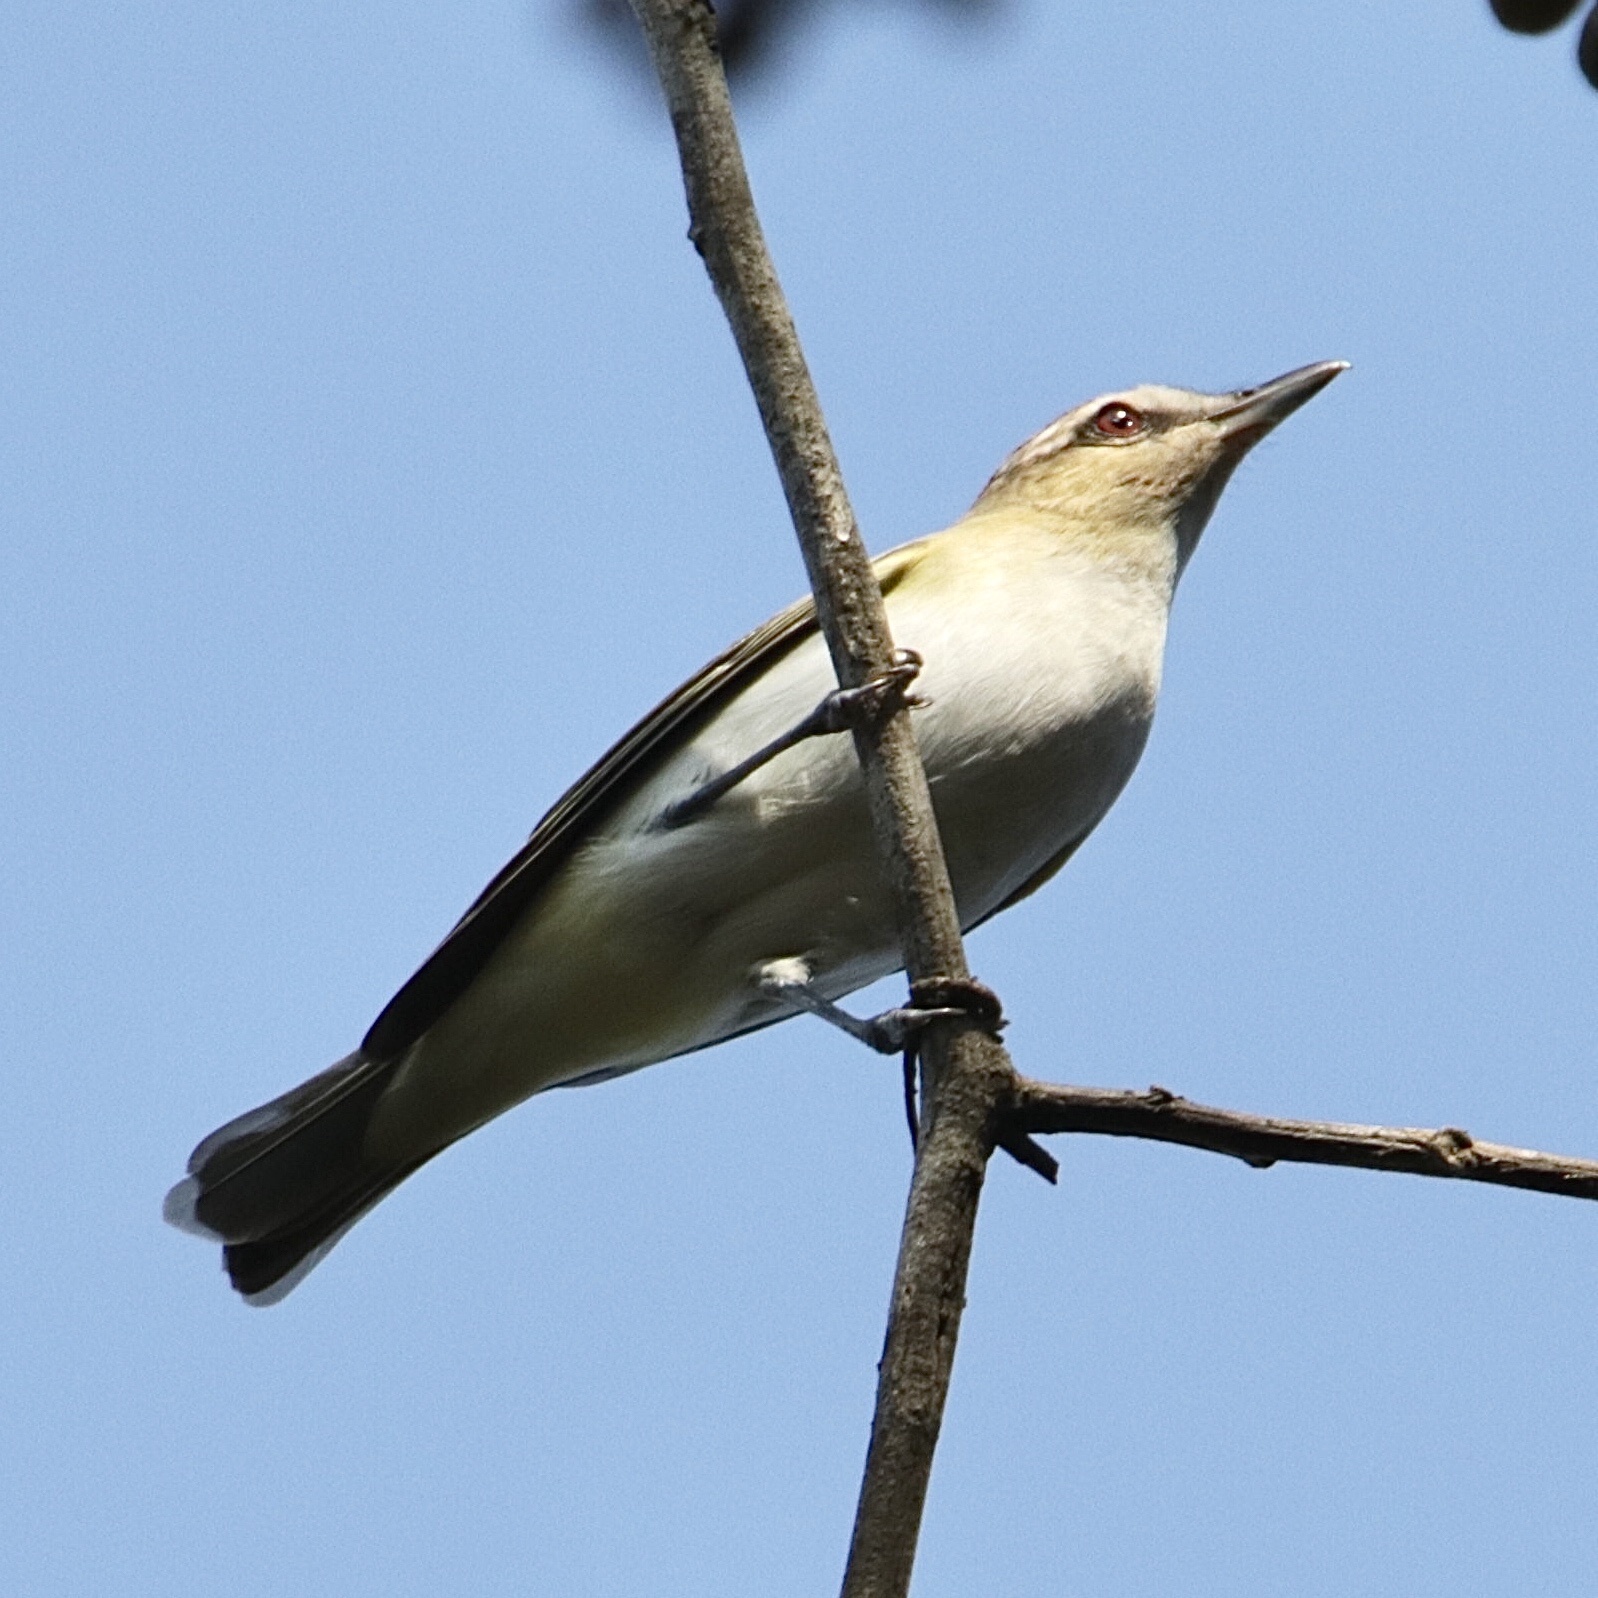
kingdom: Animalia
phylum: Chordata
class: Aves
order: Passeriformes
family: Vireonidae
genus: Vireo
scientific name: Vireo olivaceus
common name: Red-eyed vireo
